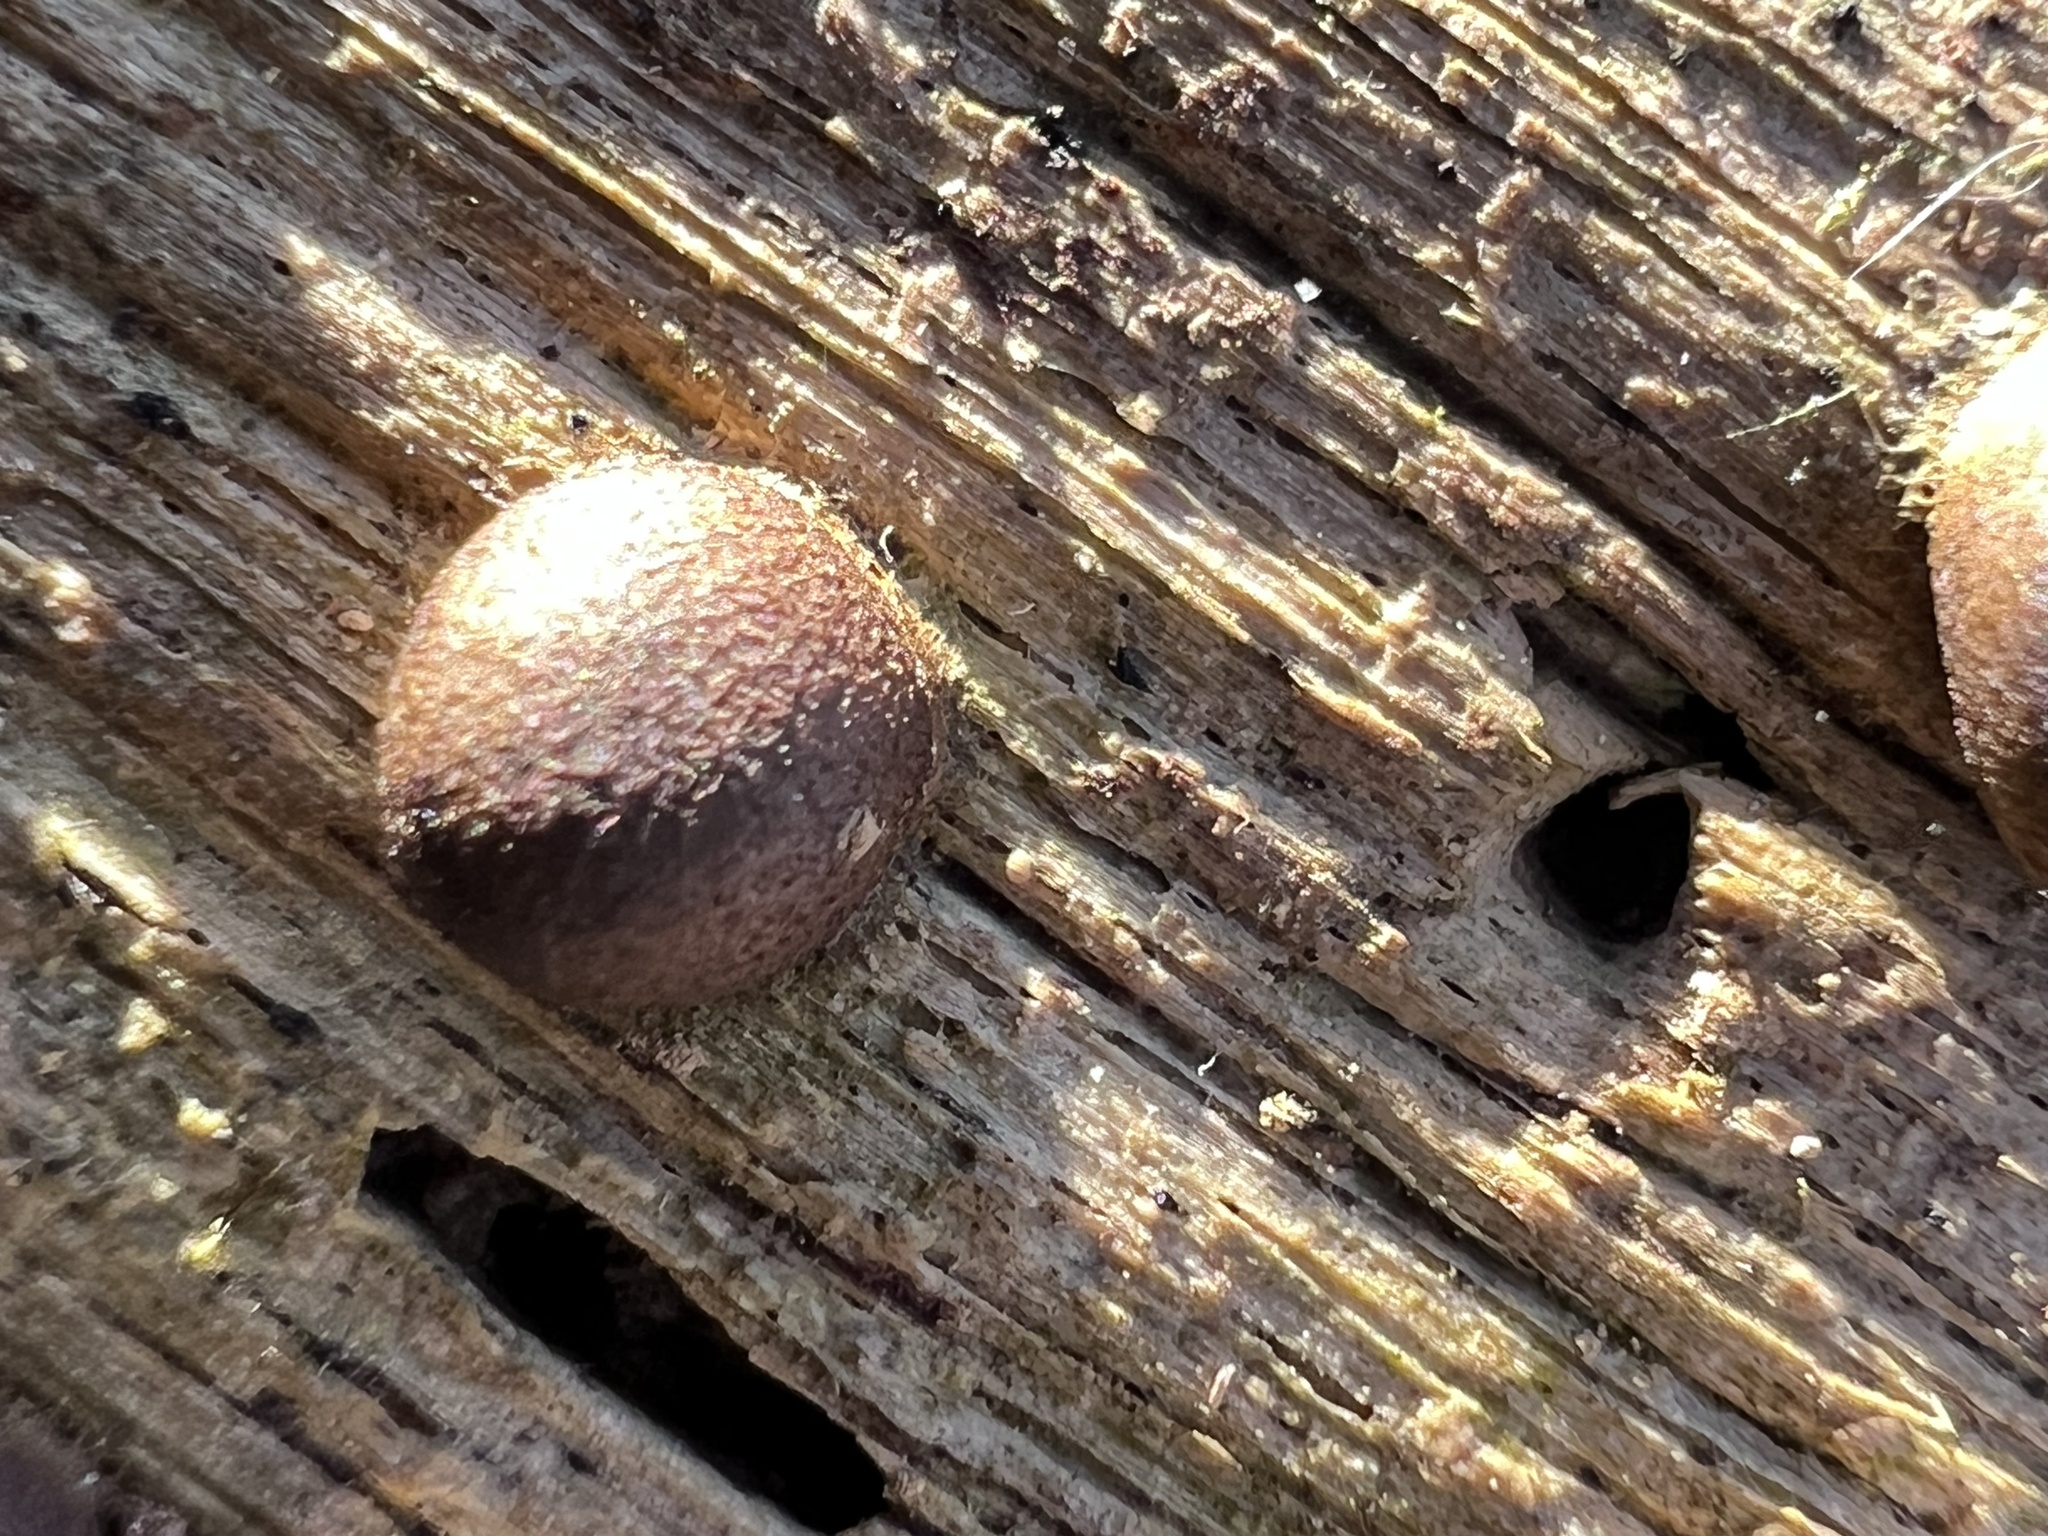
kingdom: Protozoa
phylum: Mycetozoa
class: Myxomycetes
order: Cribrariales
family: Tubiferaceae
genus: Lycogala
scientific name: Lycogala epidendrum
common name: Wolf's milk
